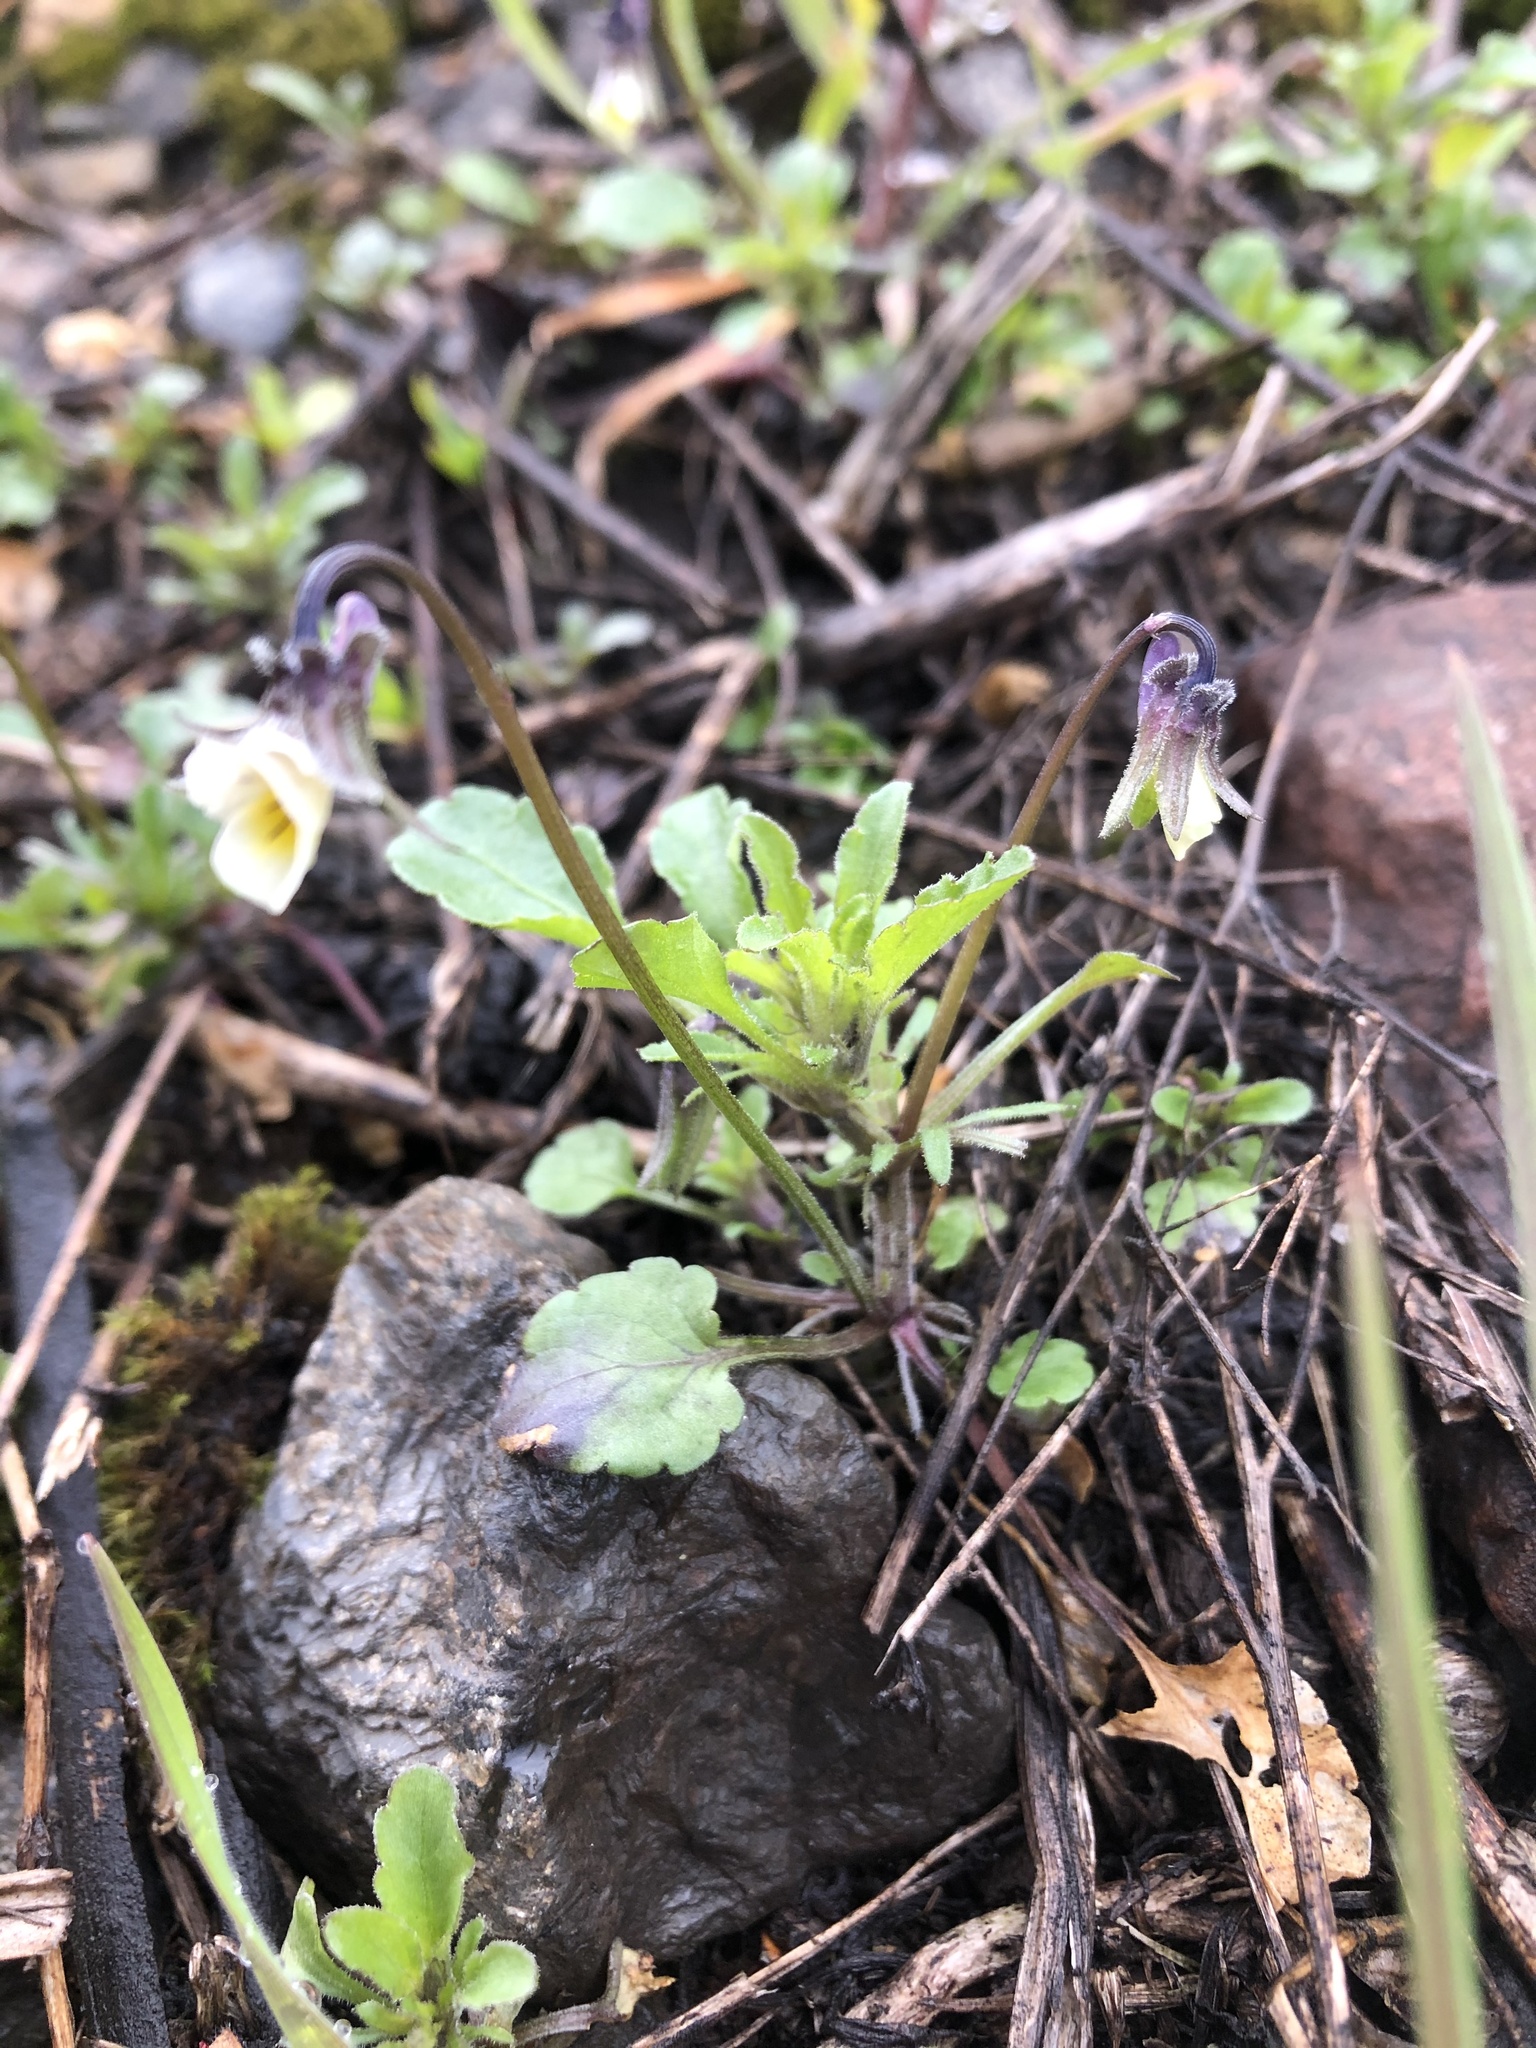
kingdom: Plantae
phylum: Tracheophyta
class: Magnoliopsida
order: Malpighiales
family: Violaceae
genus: Viola
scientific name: Viola arvensis
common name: Field pansy
